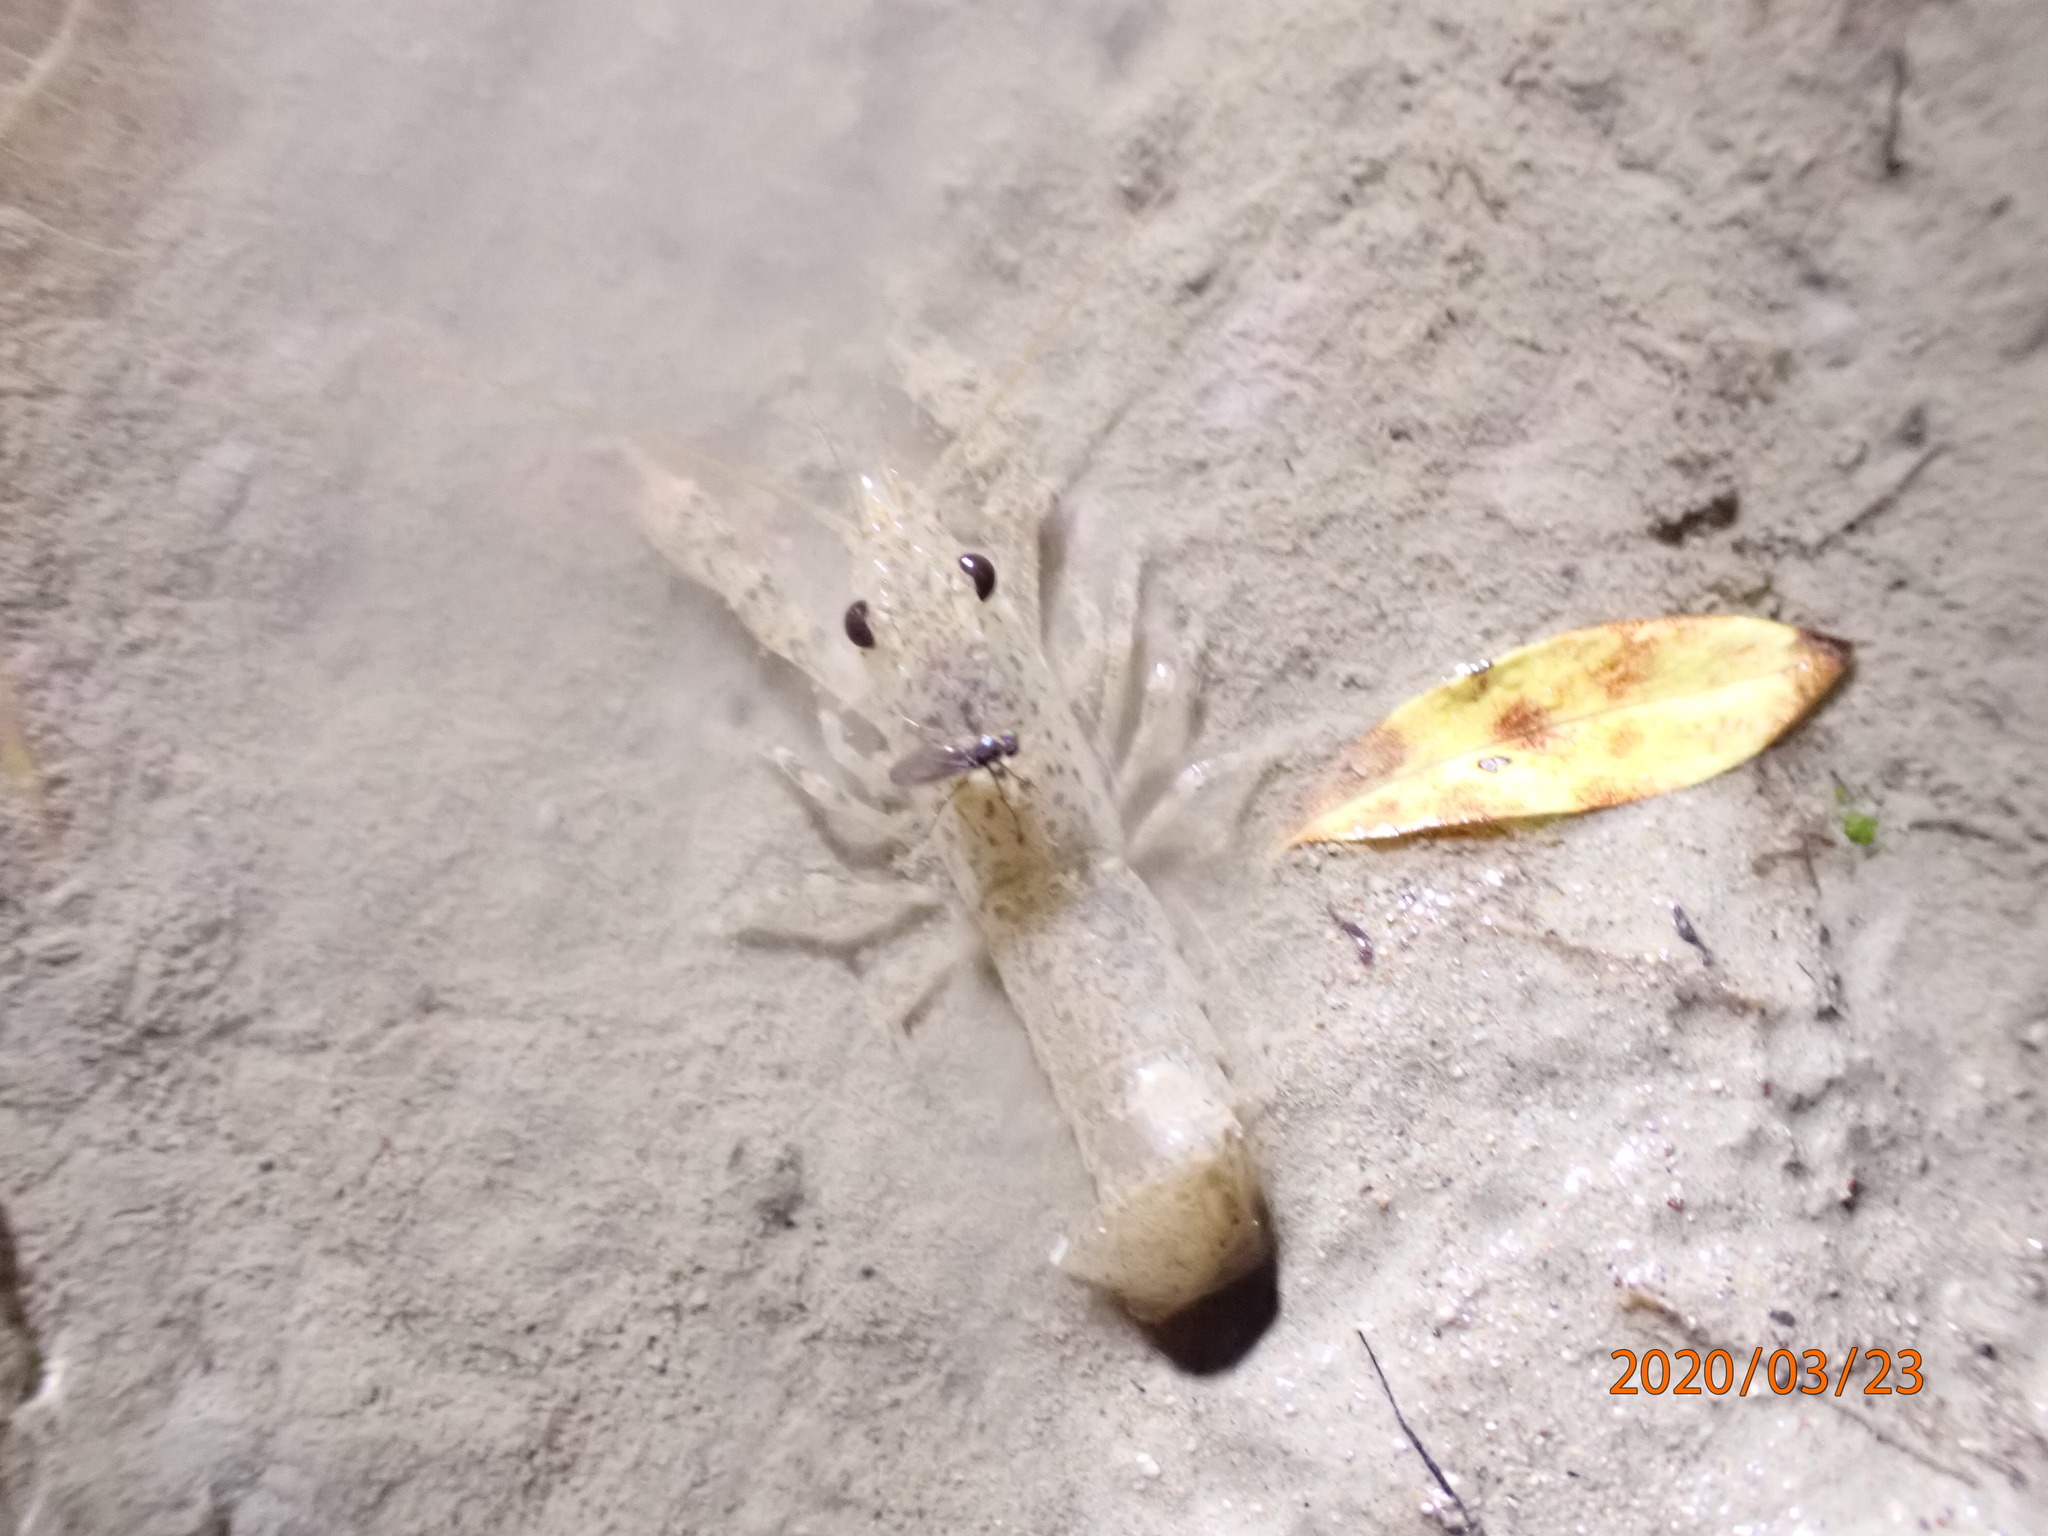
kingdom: Animalia
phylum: Arthropoda
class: Malacostraca
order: Decapoda
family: Parastacidae
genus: Paranephrops
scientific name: Paranephrops planifrons
